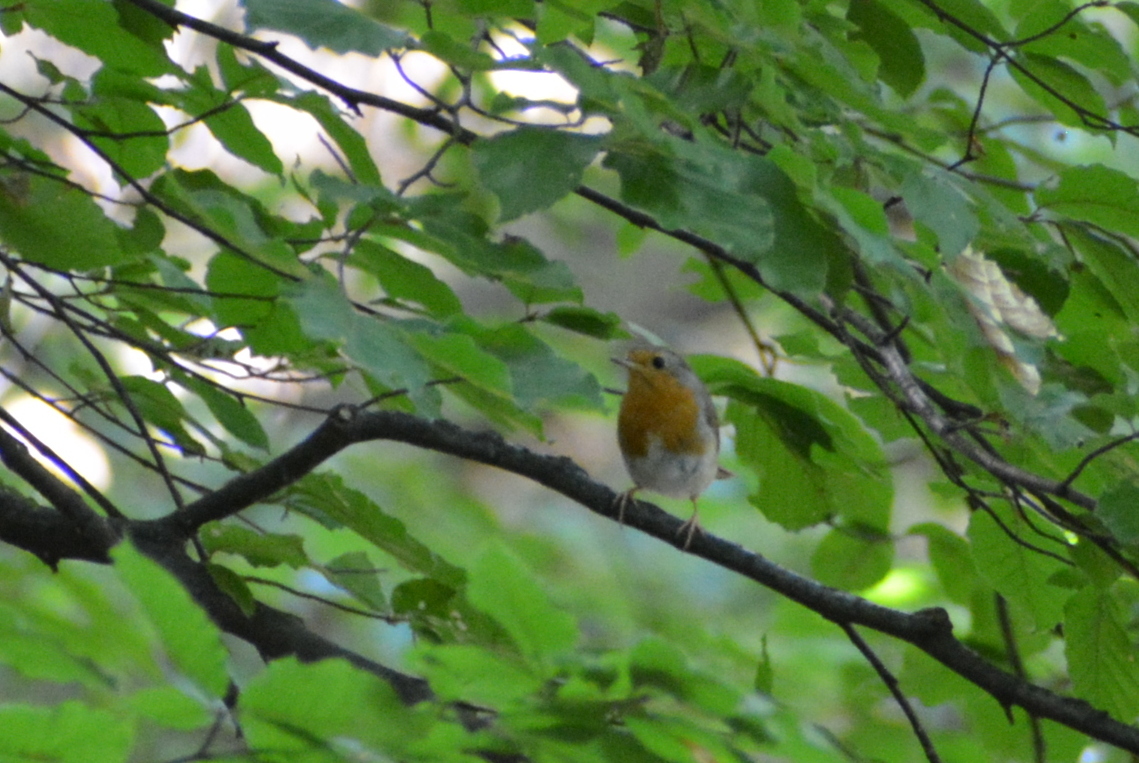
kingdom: Animalia
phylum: Chordata
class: Aves
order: Passeriformes
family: Muscicapidae
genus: Erithacus
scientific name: Erithacus rubecula
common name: European robin
